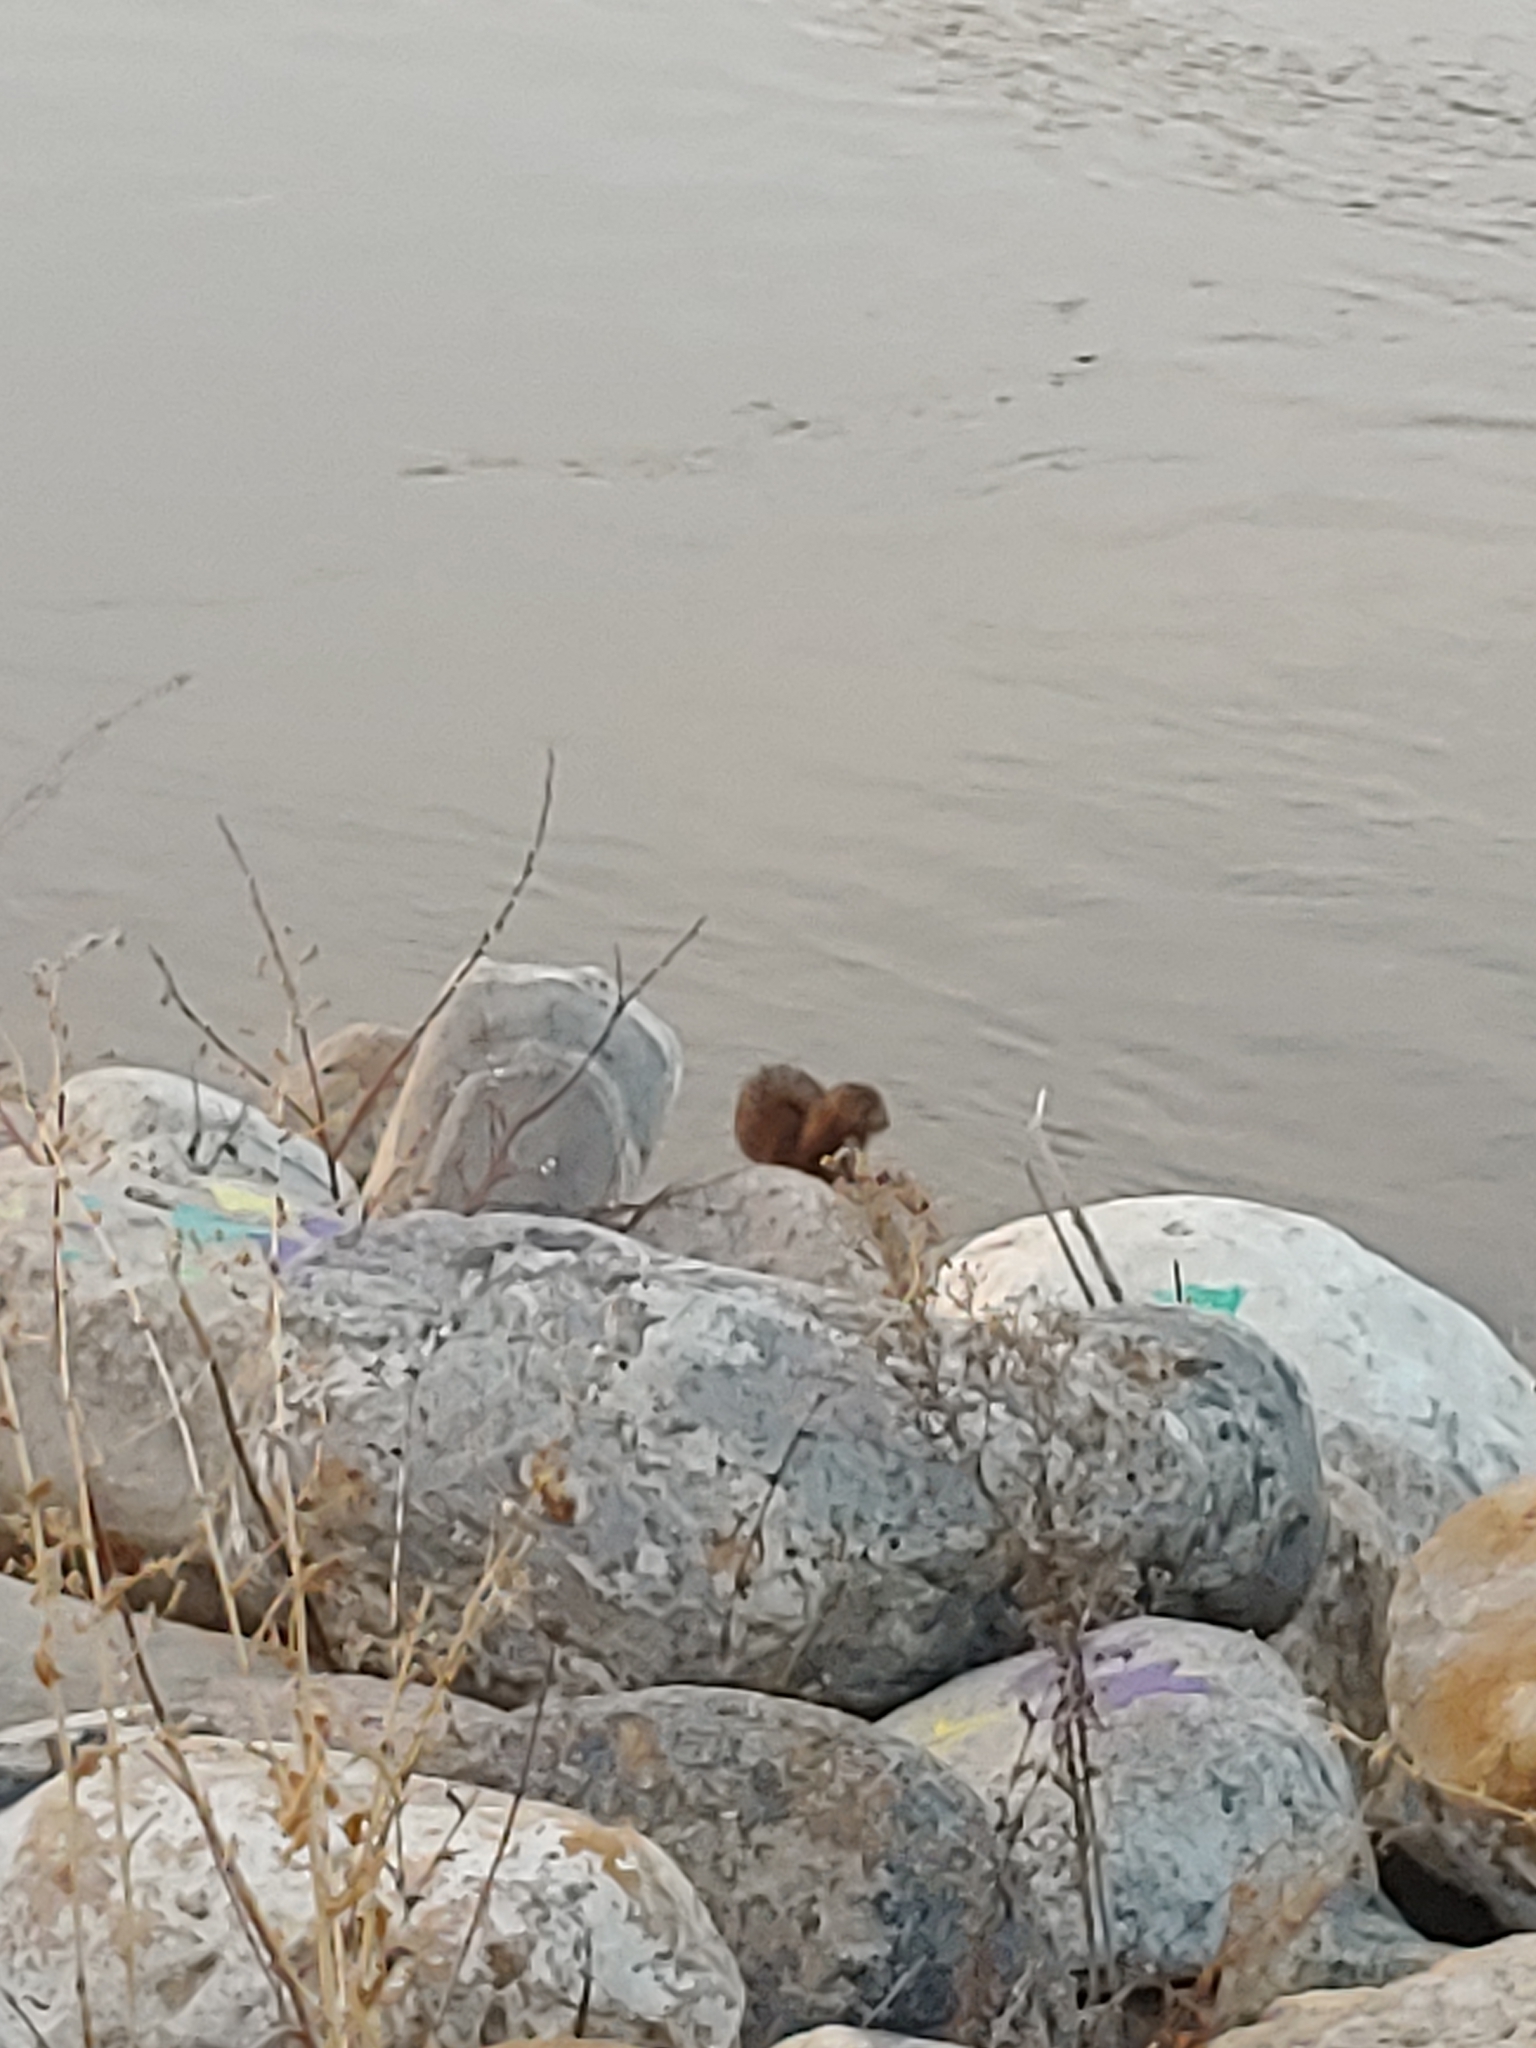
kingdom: Animalia
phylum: Chordata
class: Mammalia
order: Carnivora
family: Mustelidae
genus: Mustela
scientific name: Mustela
